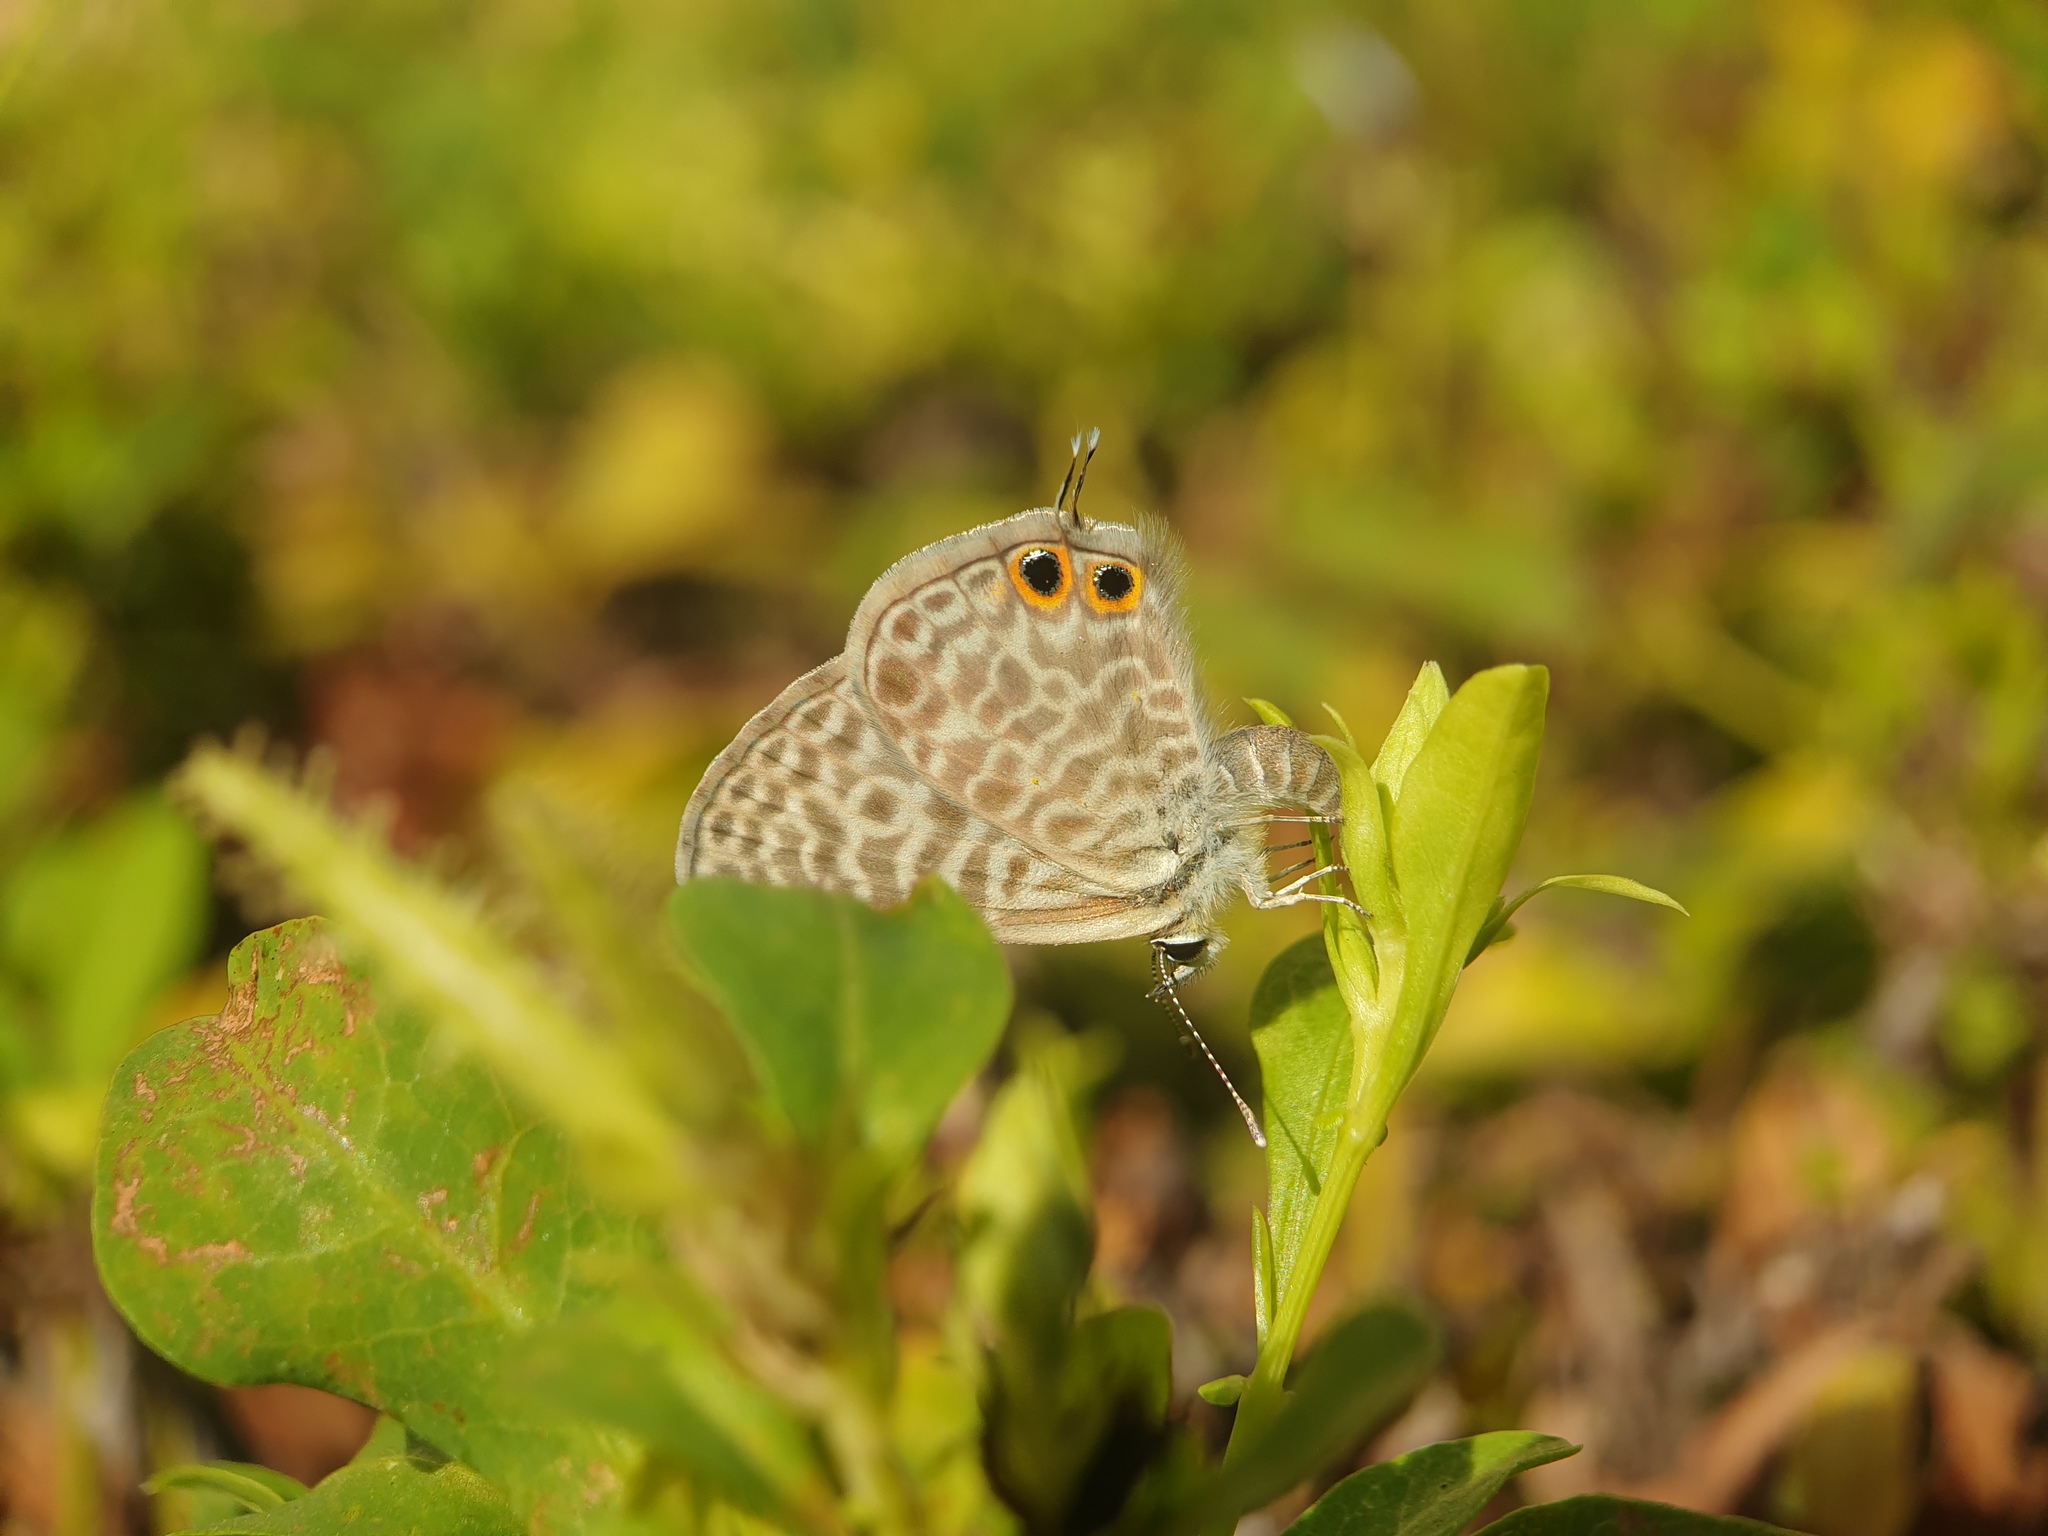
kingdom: Animalia
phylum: Arthropoda
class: Insecta
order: Lepidoptera
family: Lycaenidae
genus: Leptotes
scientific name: Leptotes pirithous
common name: Lang's short-tailed blue
